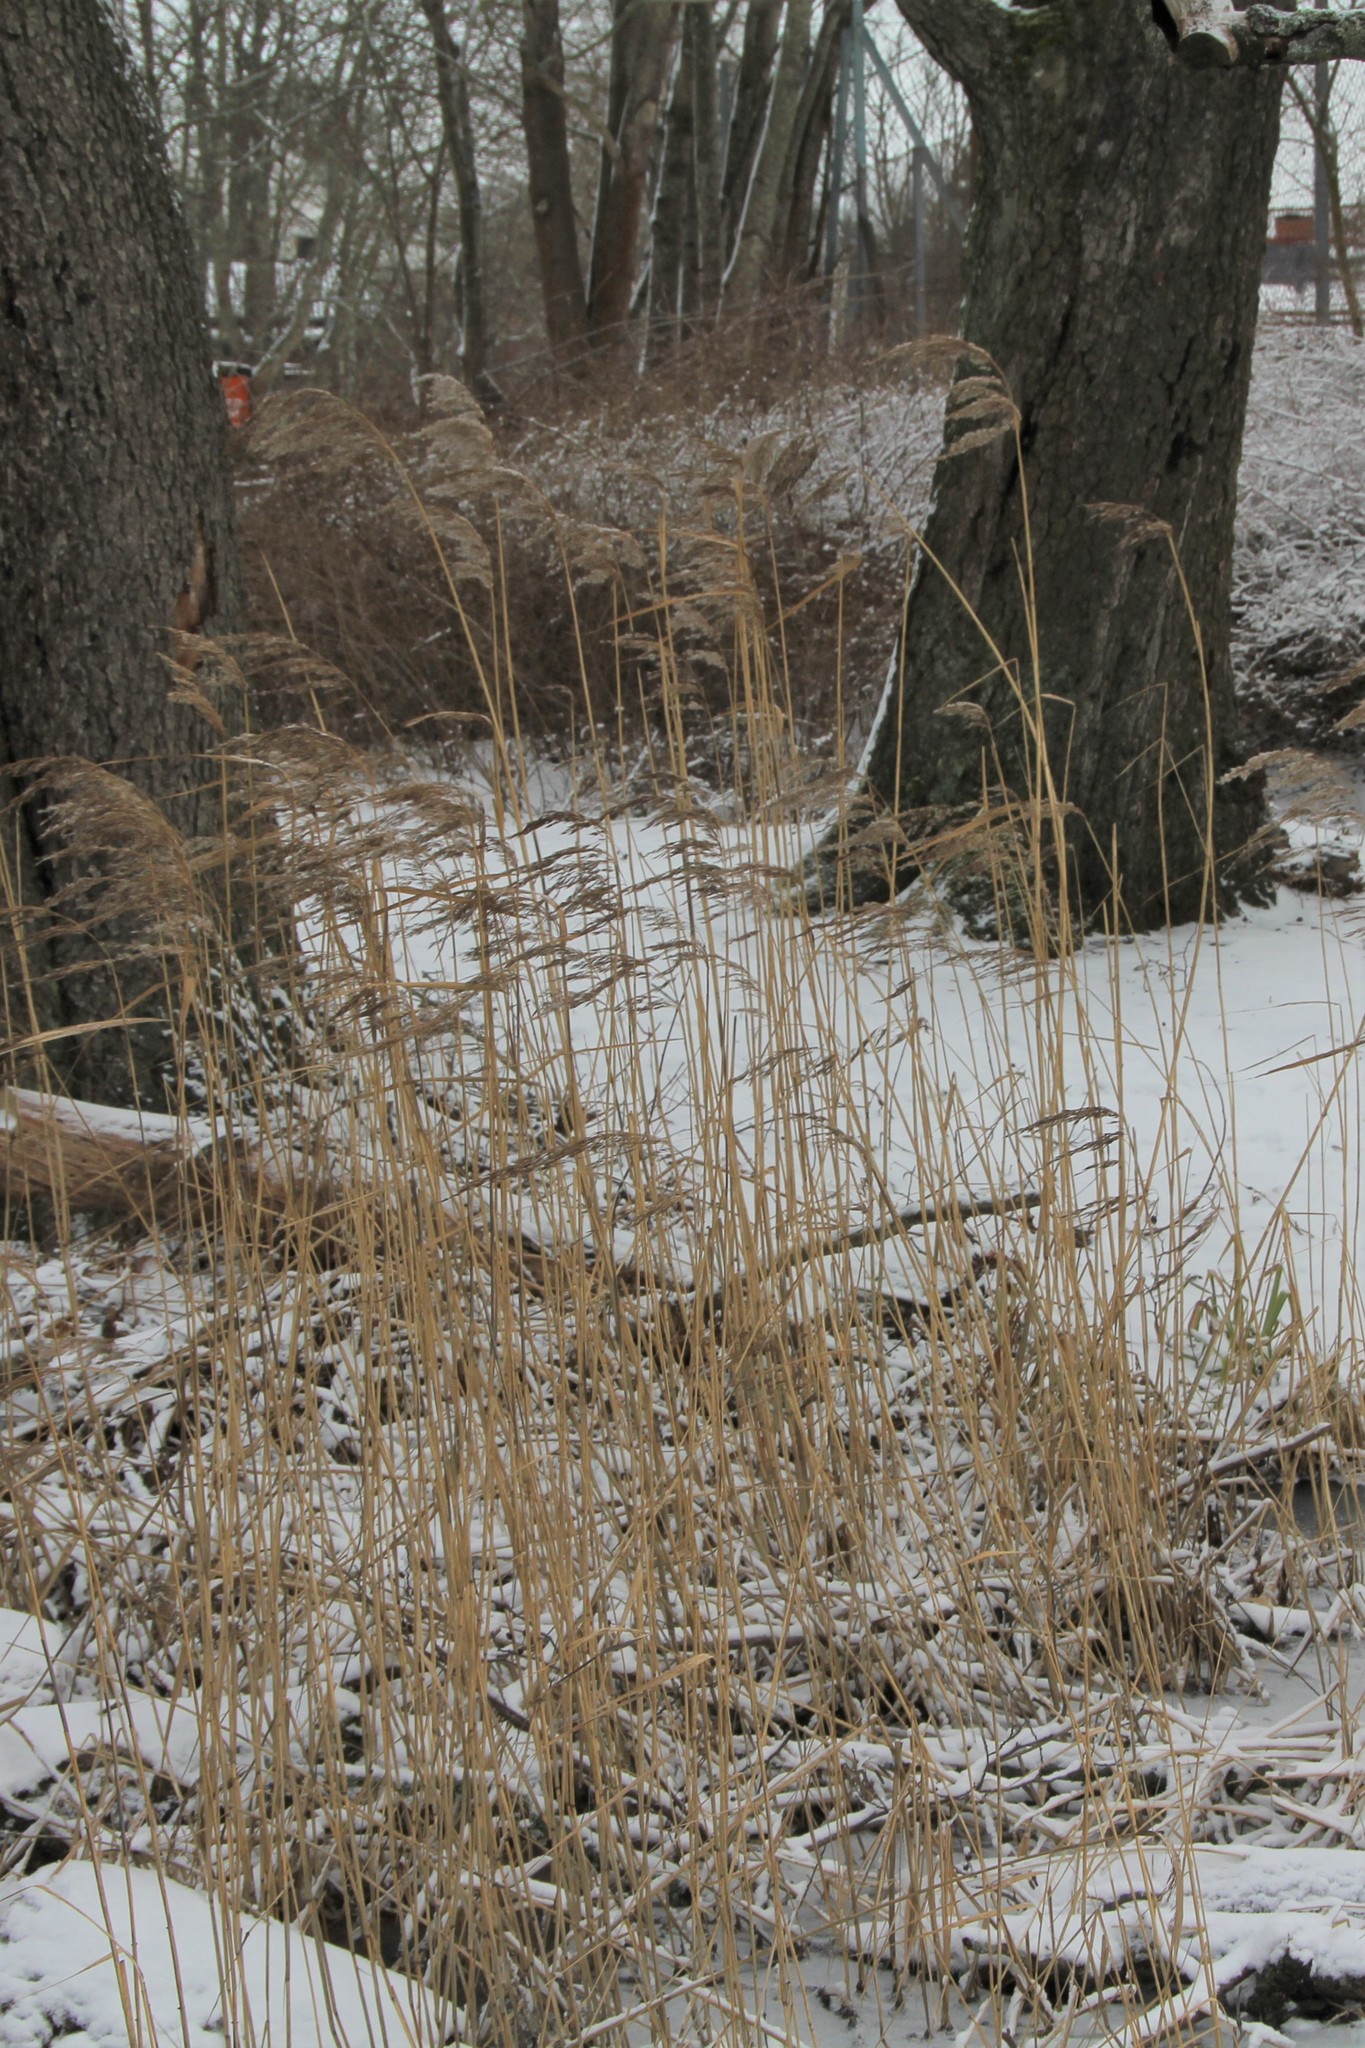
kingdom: Plantae
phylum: Tracheophyta
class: Liliopsida
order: Poales
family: Poaceae
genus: Phragmites
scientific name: Phragmites australis
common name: Common reed
